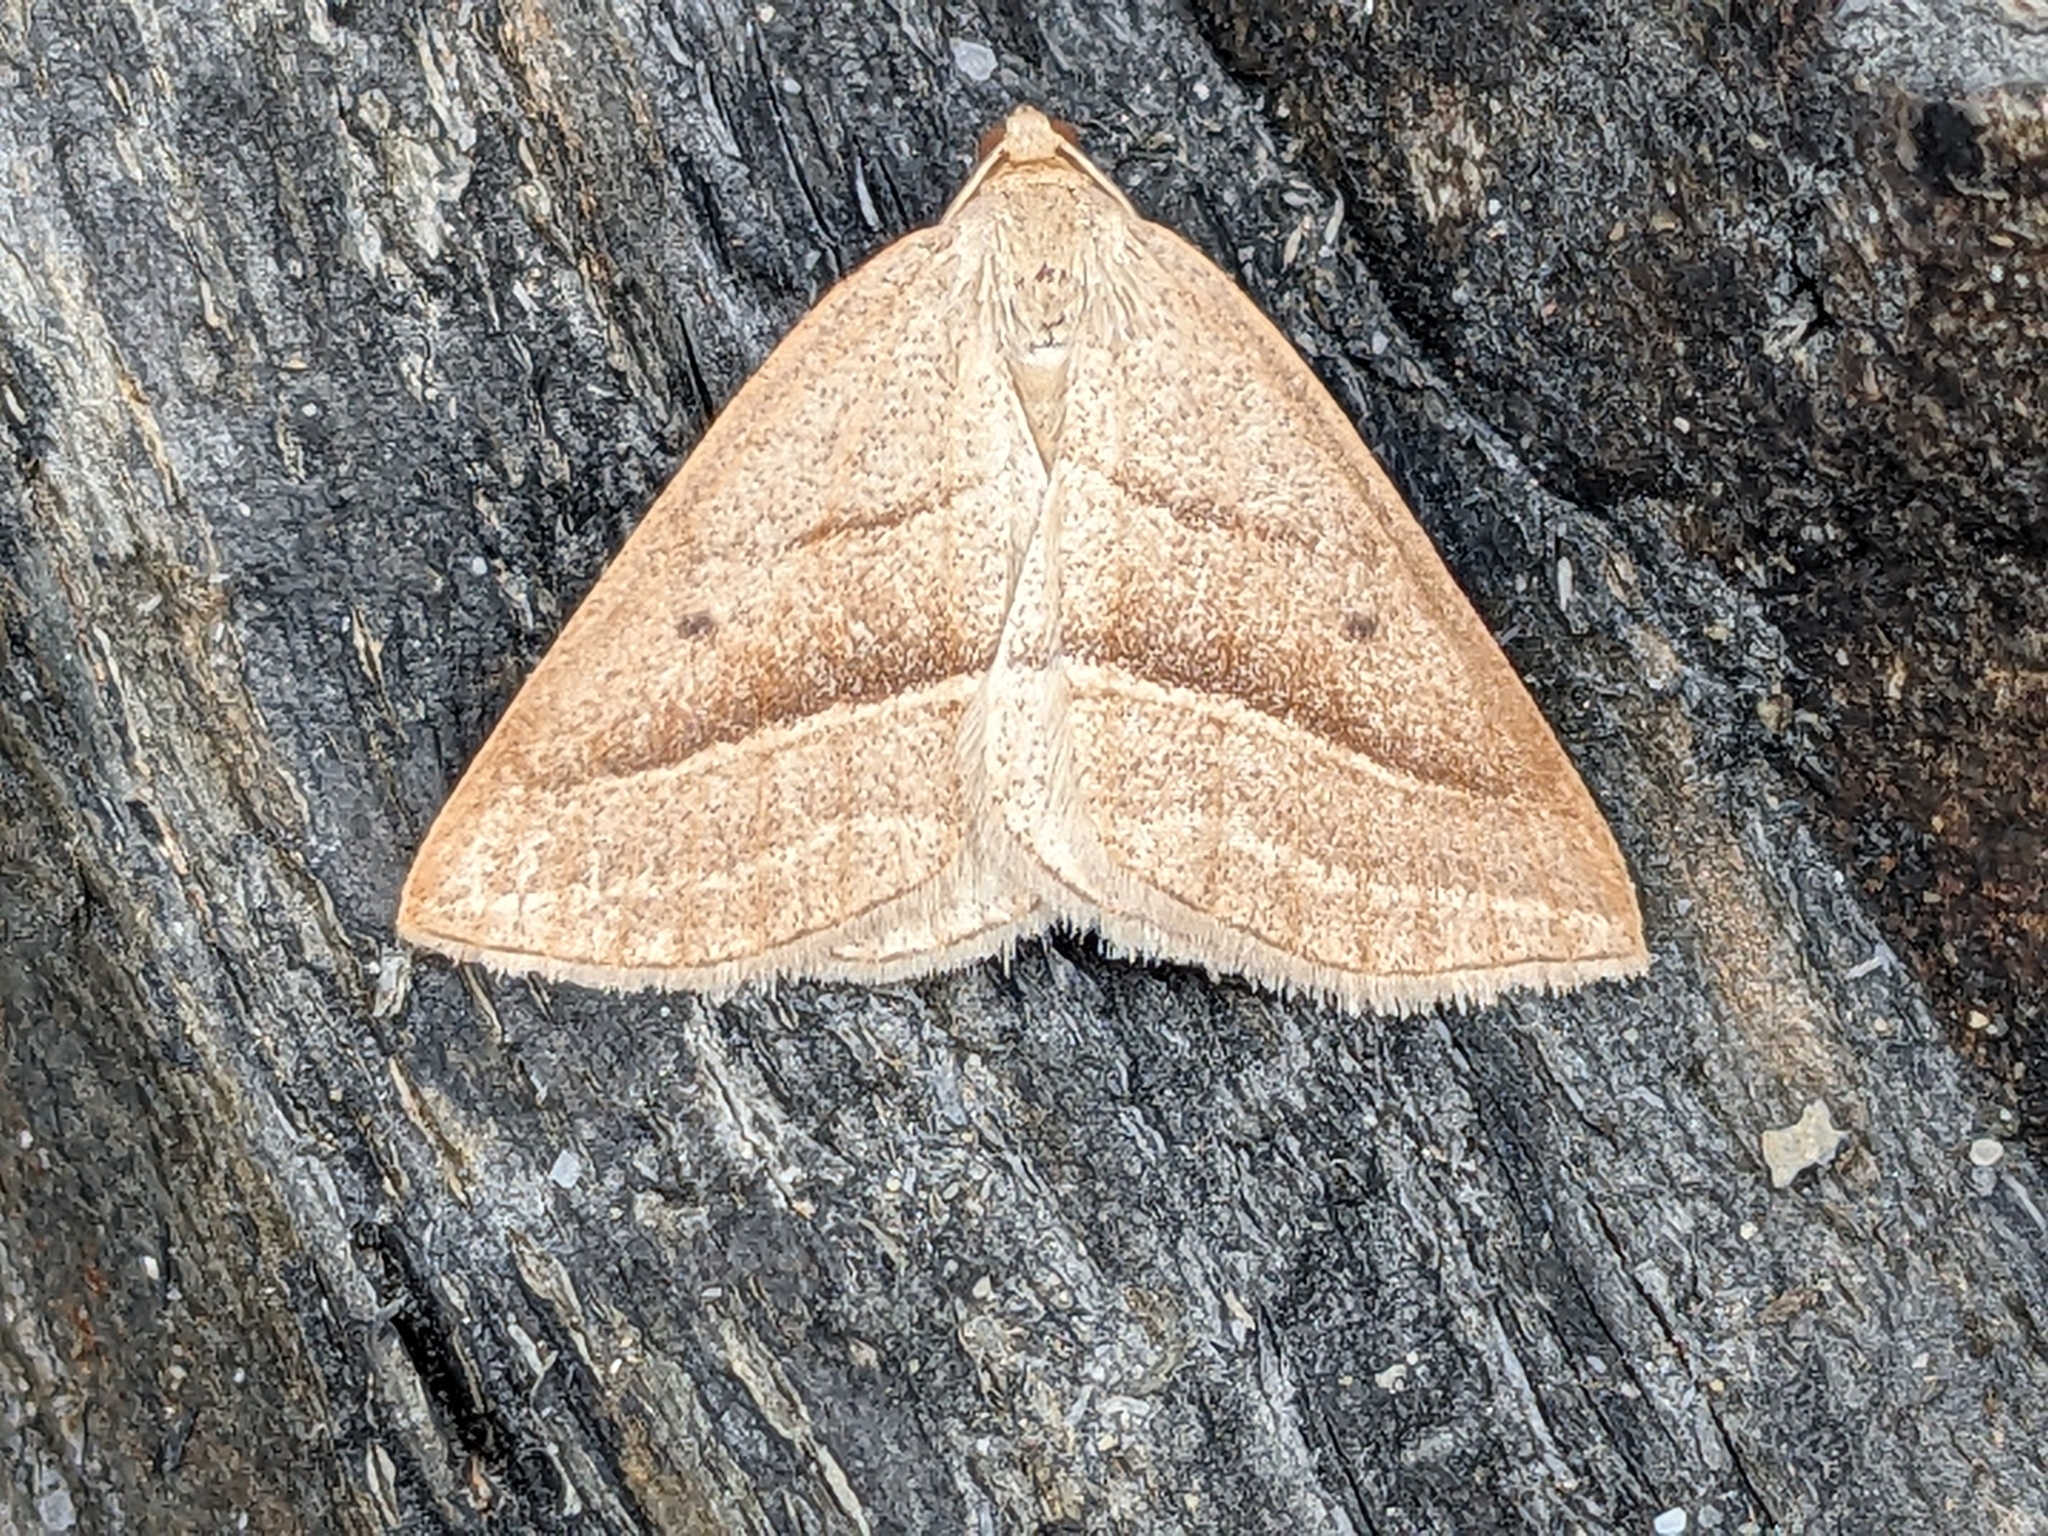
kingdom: Animalia
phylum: Arthropoda
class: Insecta
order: Lepidoptera
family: Pterophoridae
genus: Pterophorus
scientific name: Pterophorus Petrophora chlorosata
